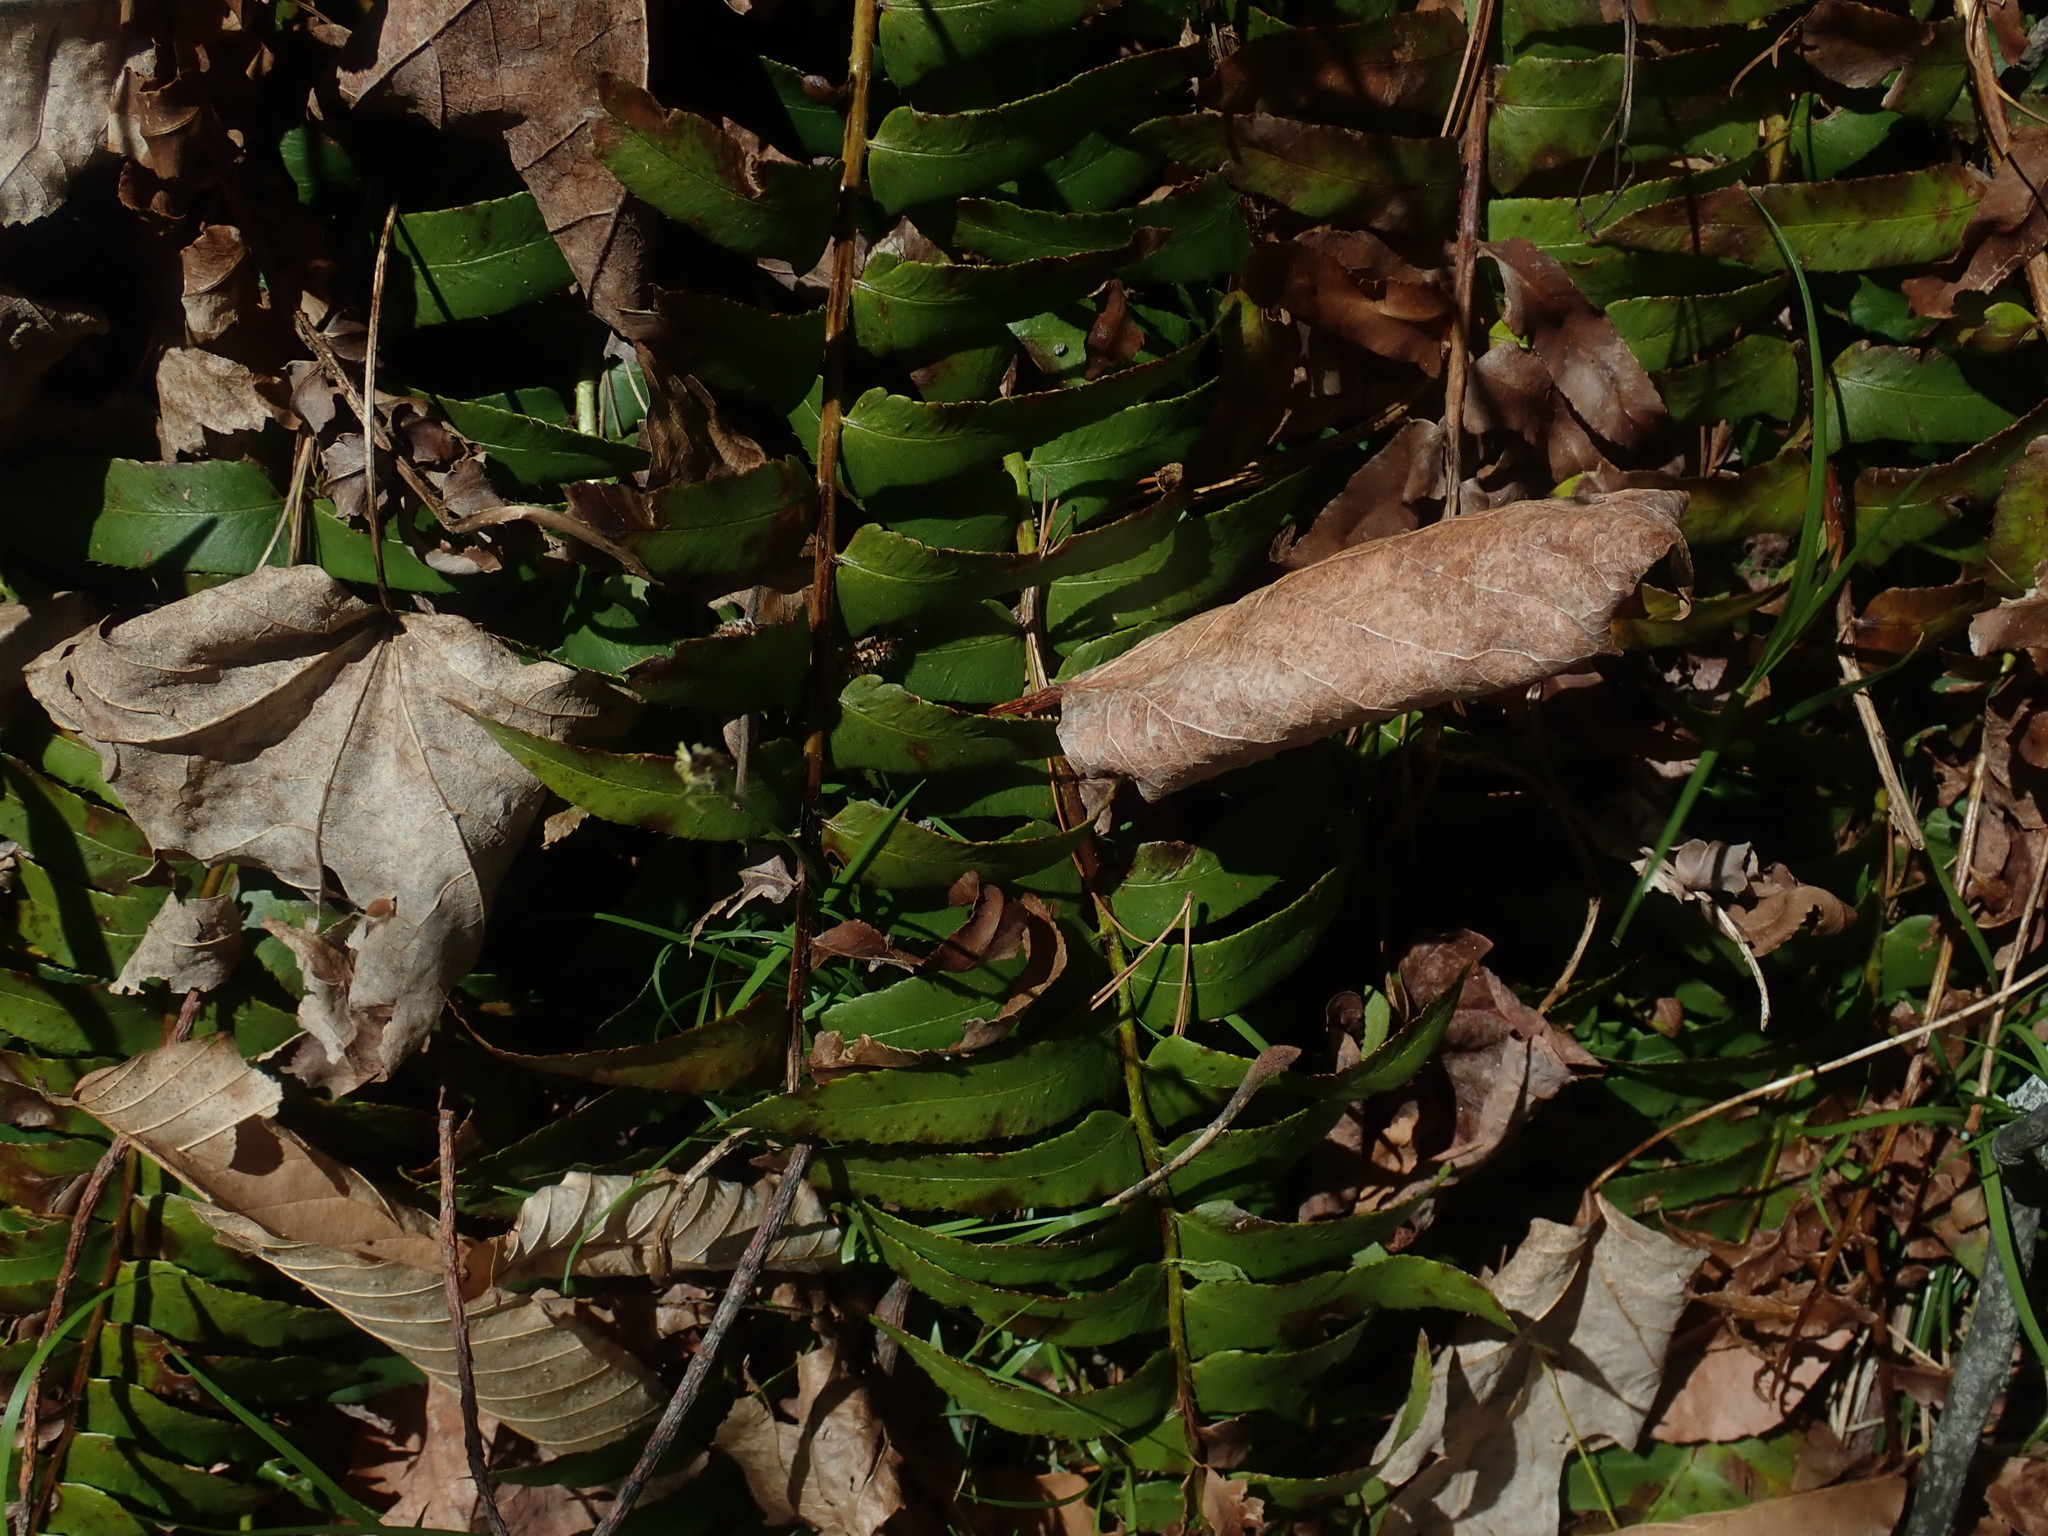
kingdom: Plantae
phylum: Tracheophyta
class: Polypodiopsida
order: Polypodiales
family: Dryopteridaceae
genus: Polystichum
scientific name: Polystichum acrostichoides
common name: Christmas fern
